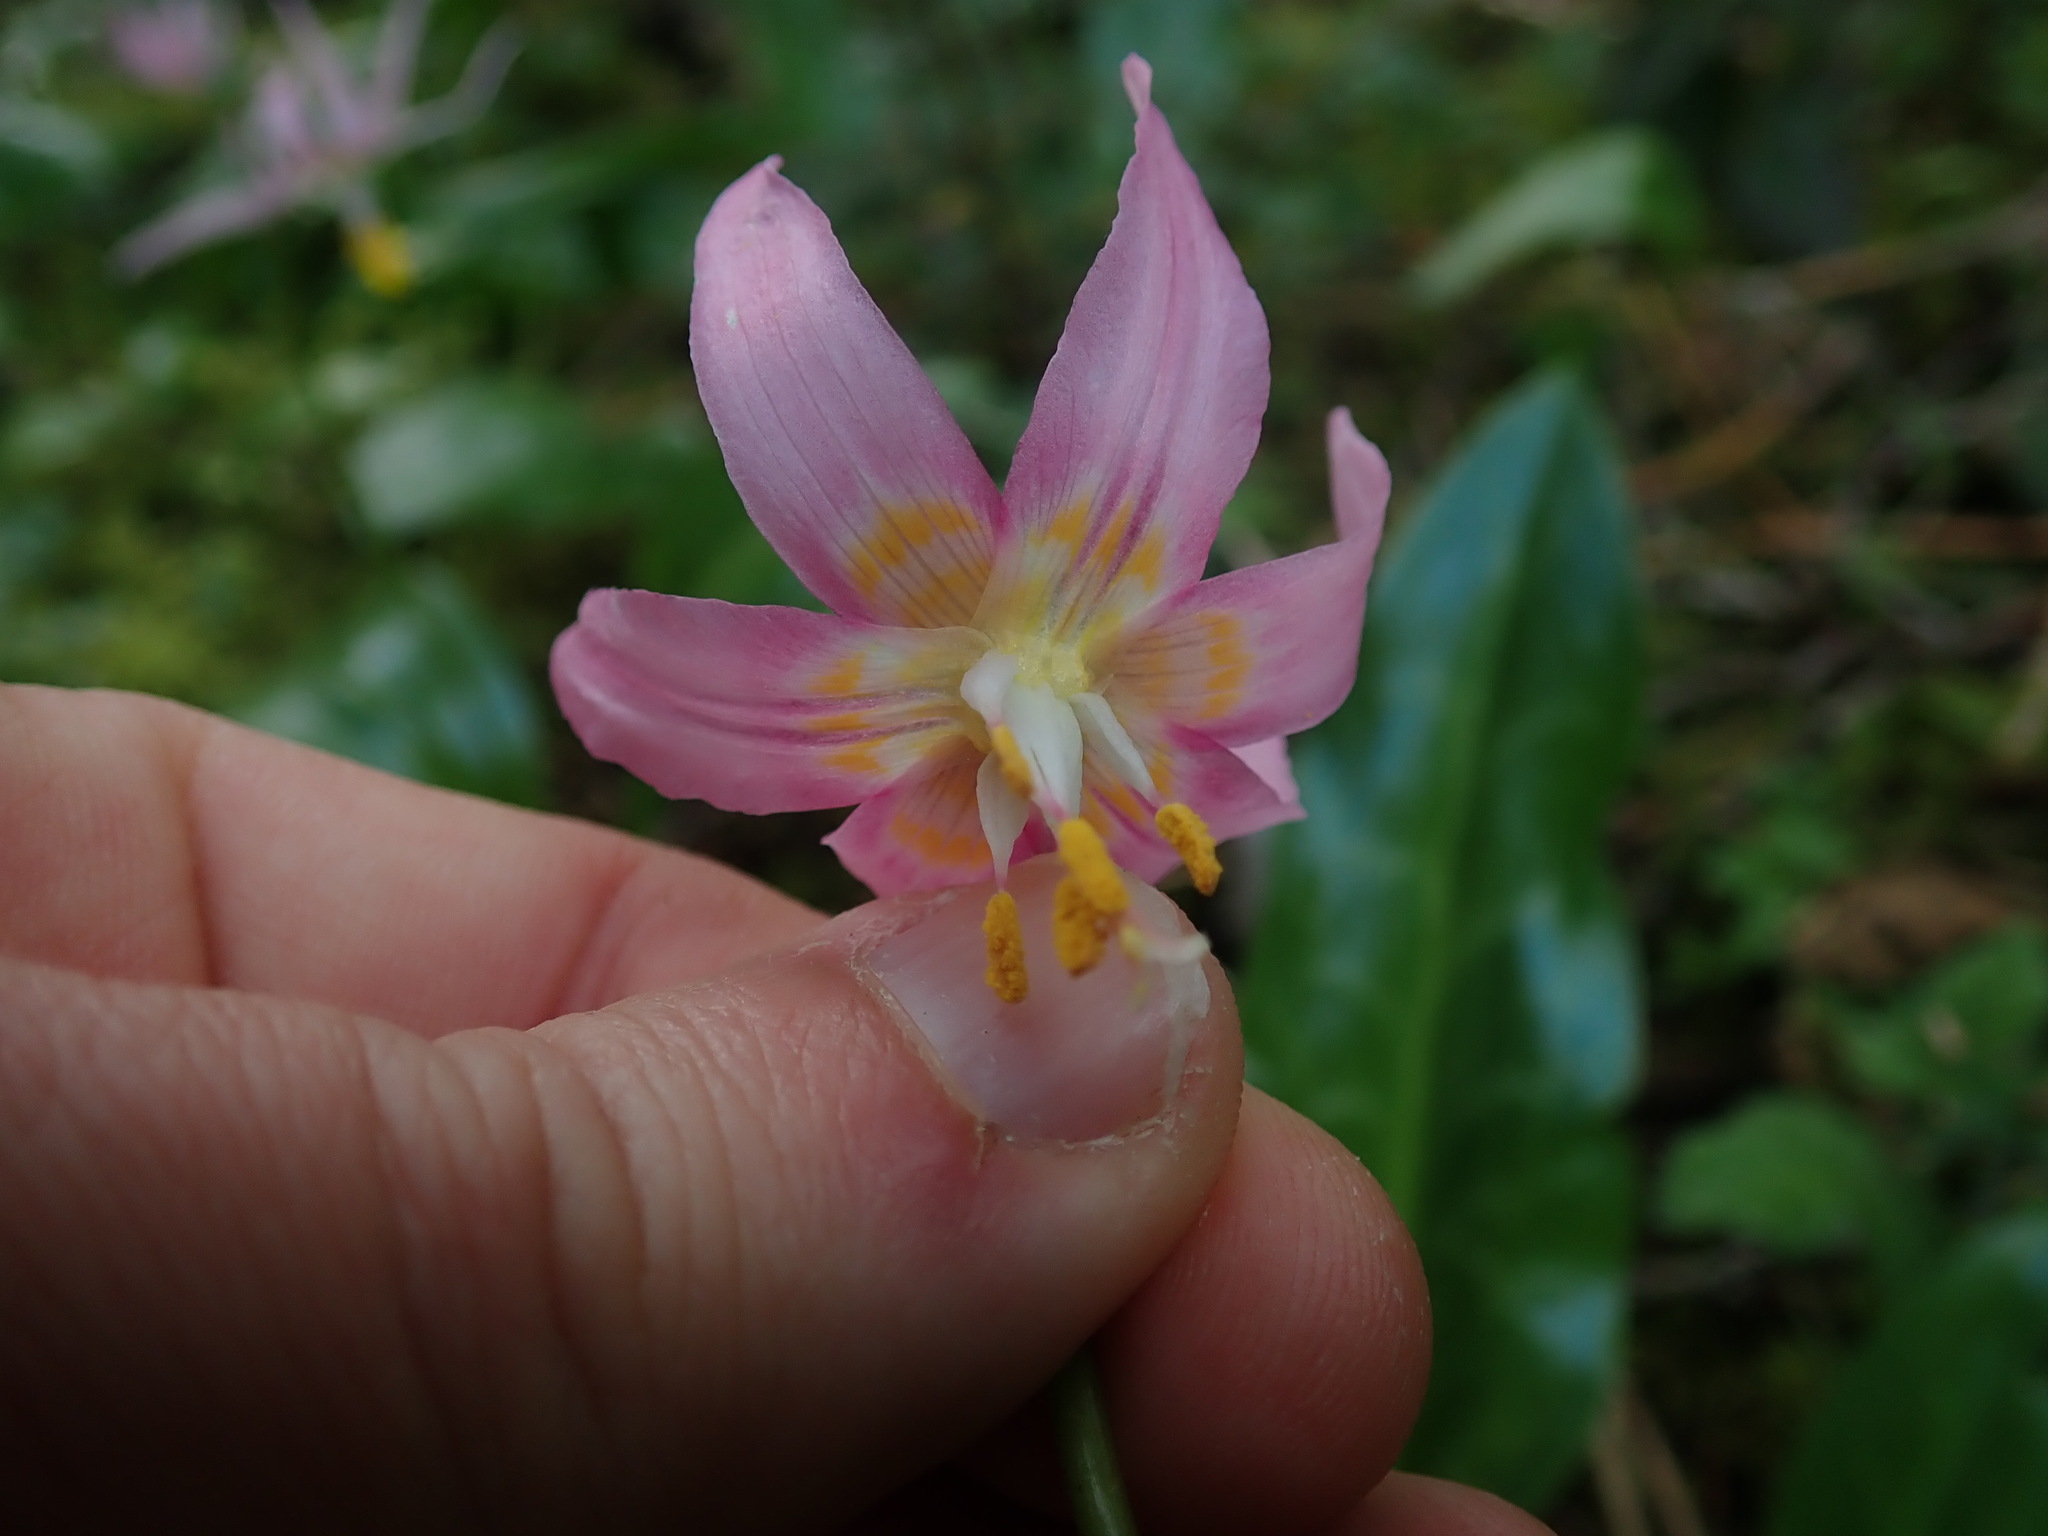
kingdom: Plantae
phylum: Tracheophyta
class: Liliopsida
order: Liliales
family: Liliaceae
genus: Erythronium
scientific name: Erythronium revolutum
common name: Pink fawn-lily
